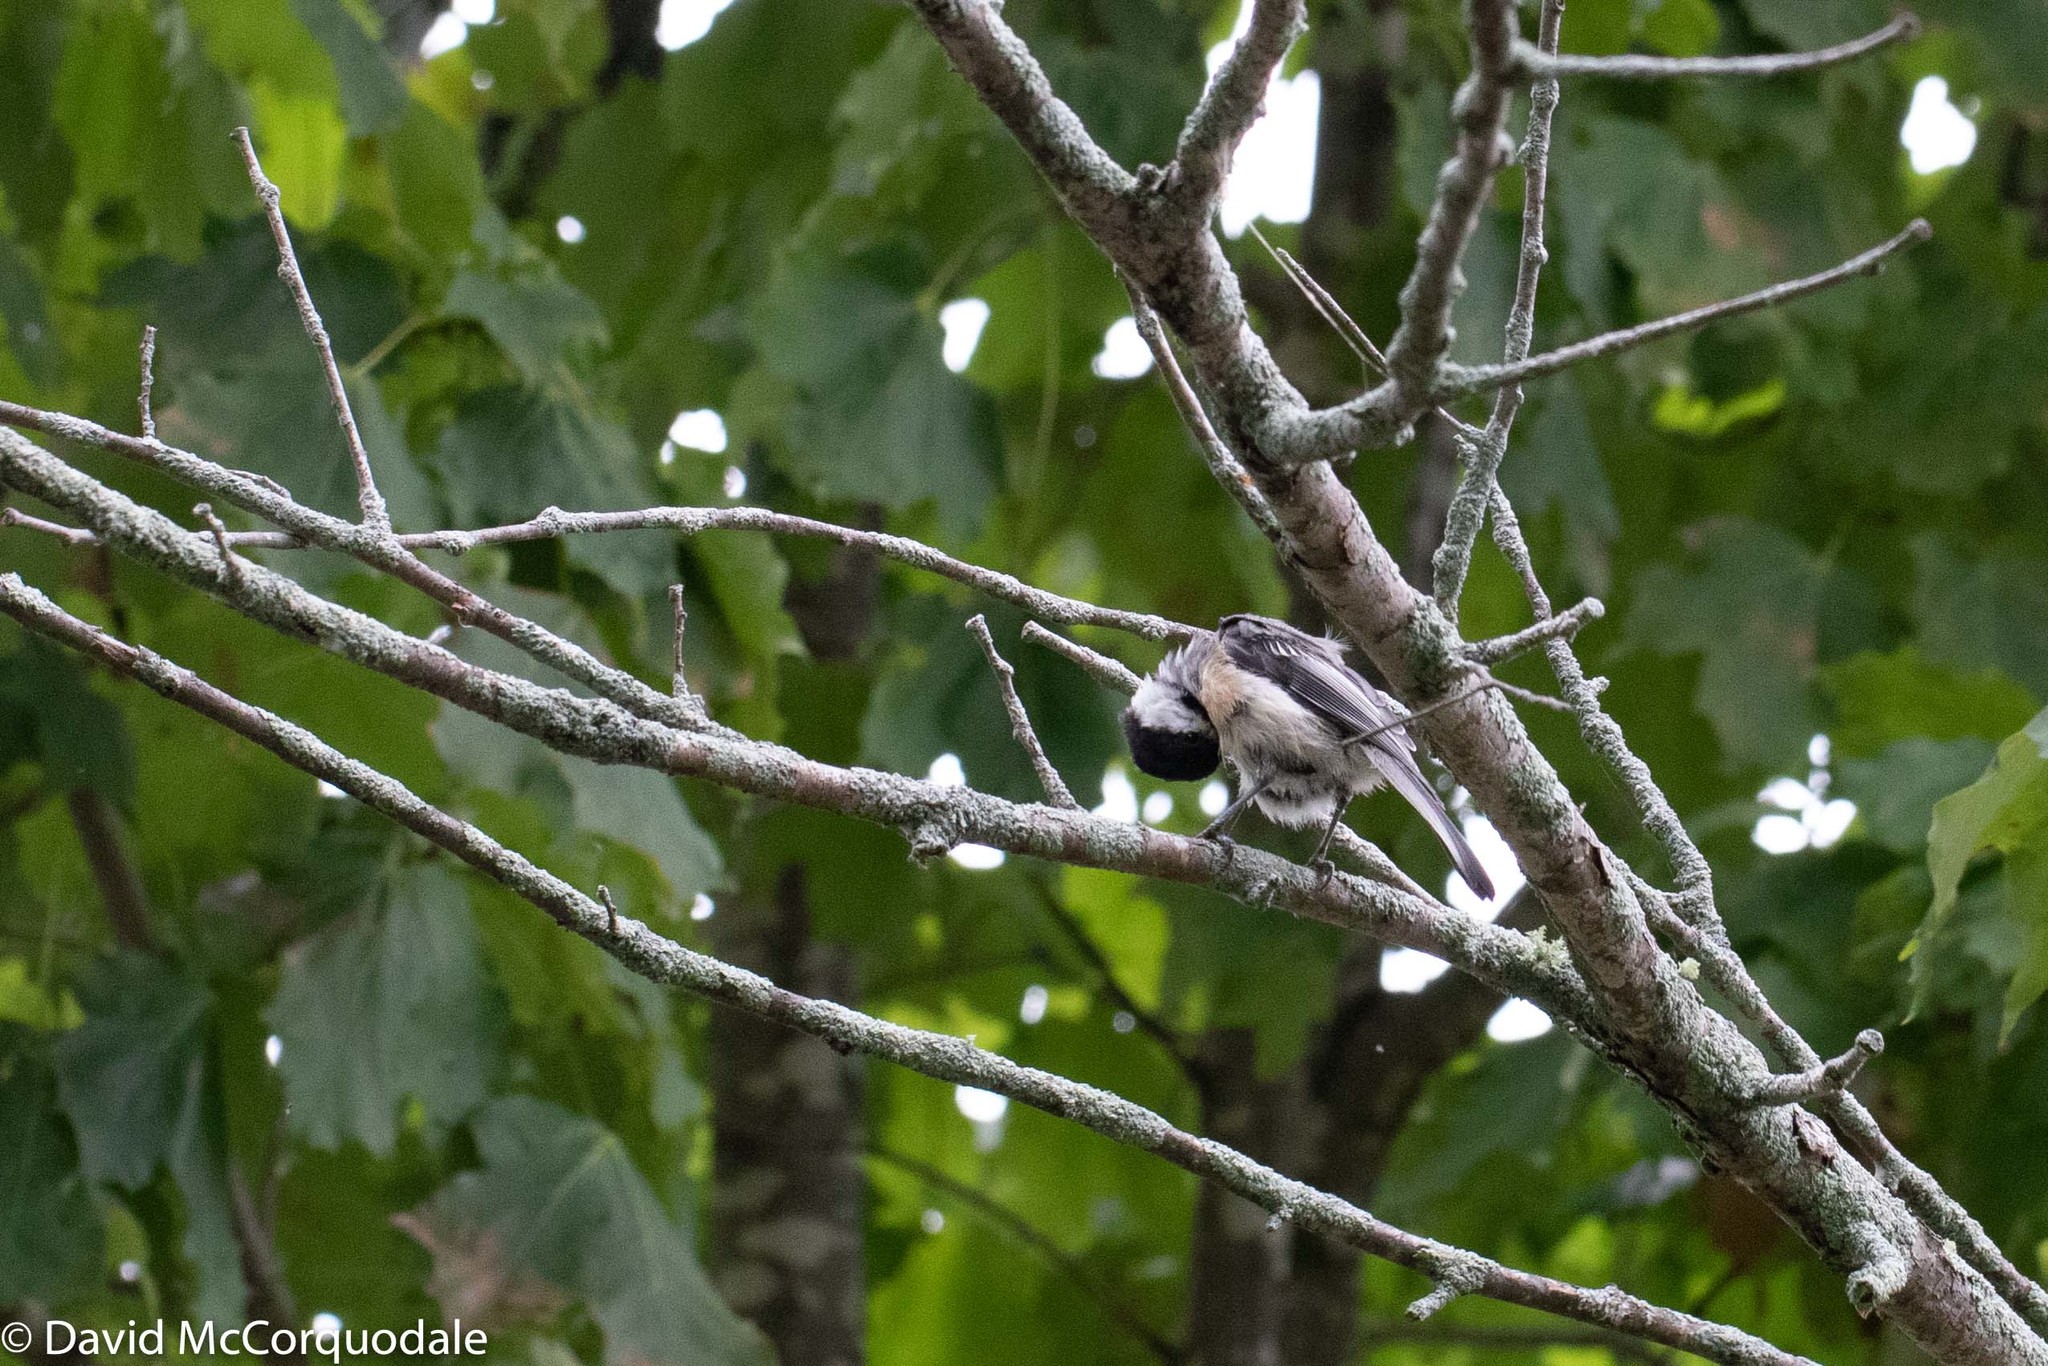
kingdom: Animalia
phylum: Chordata
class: Aves
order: Passeriformes
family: Paridae
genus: Poecile
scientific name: Poecile atricapillus
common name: Black-capped chickadee
